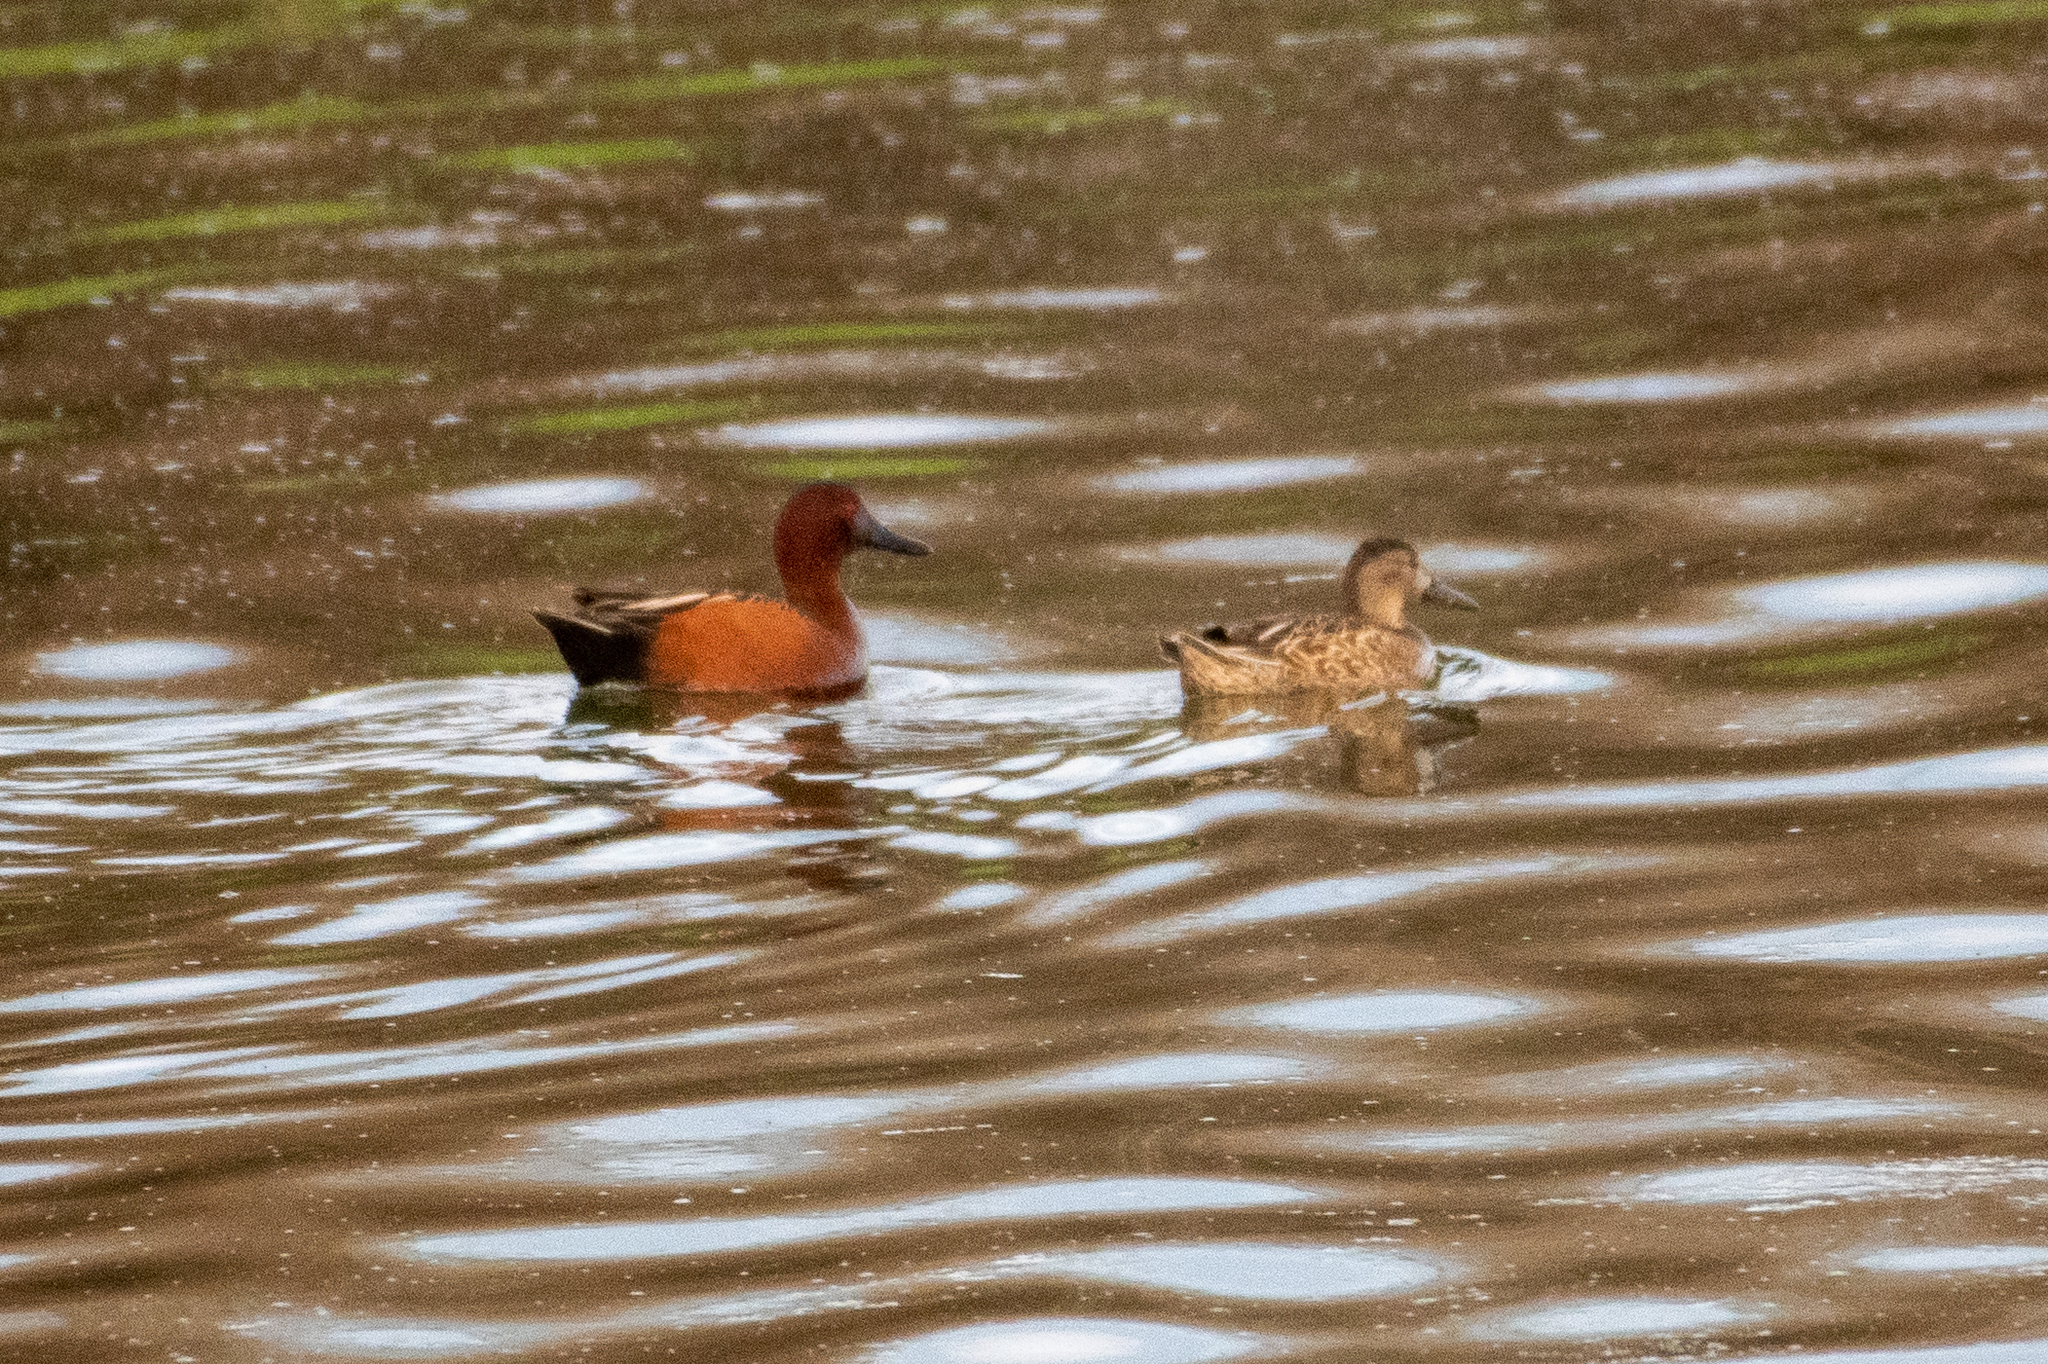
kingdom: Animalia
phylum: Chordata
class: Aves
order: Anseriformes
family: Anatidae
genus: Spatula
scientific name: Spatula cyanoptera
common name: Cinnamon teal
